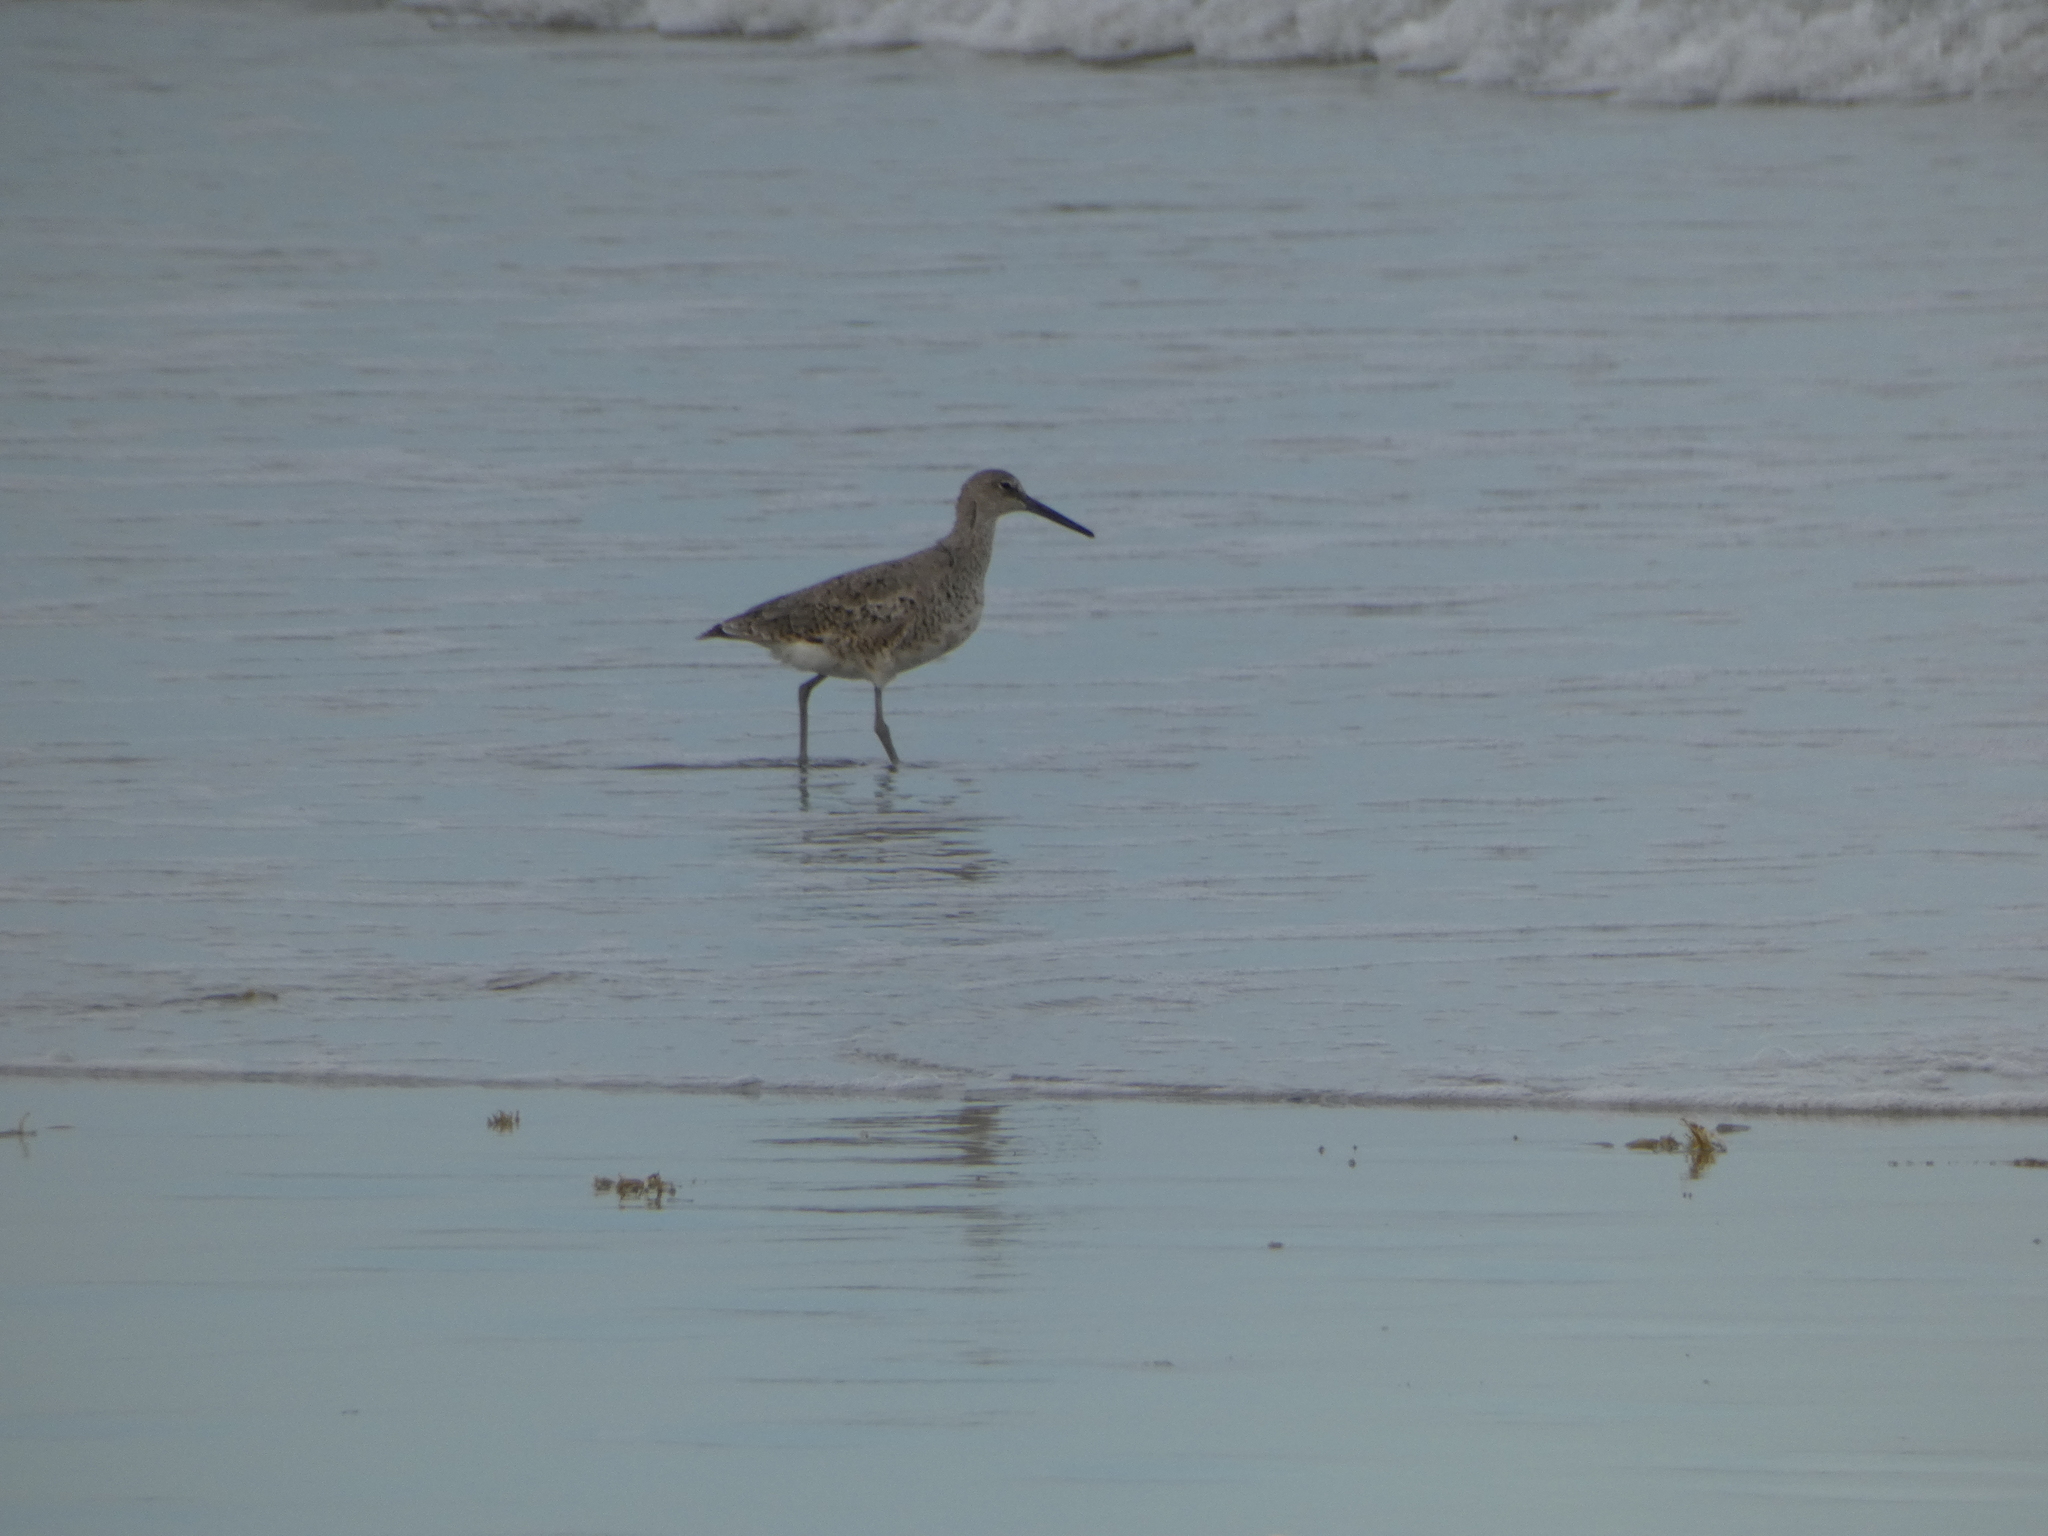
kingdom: Animalia
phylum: Chordata
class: Aves
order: Charadriiformes
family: Scolopacidae
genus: Tringa
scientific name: Tringa semipalmata
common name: Willet
